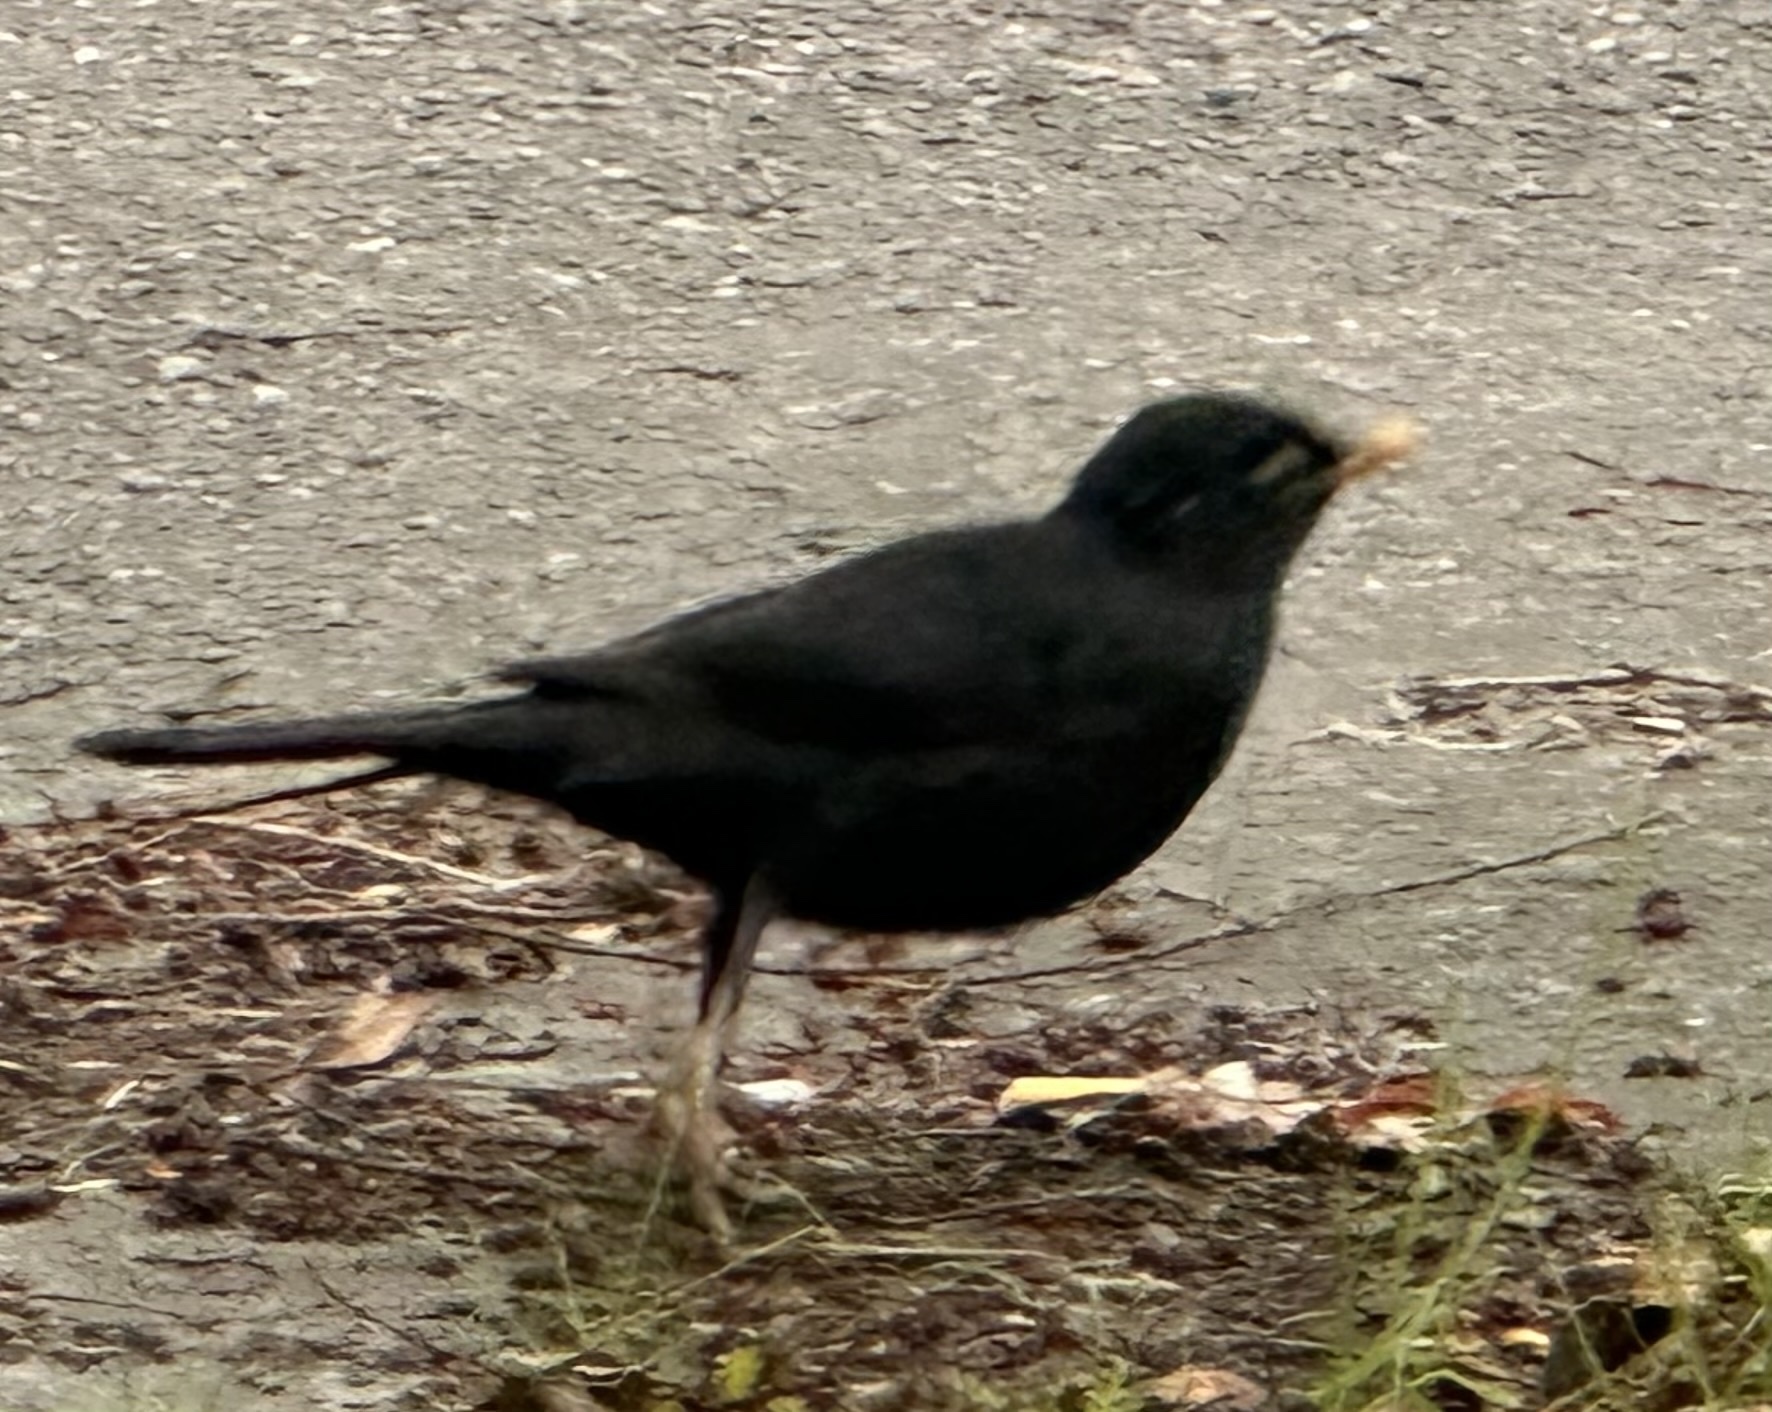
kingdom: Animalia
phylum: Chordata
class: Aves
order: Passeriformes
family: Turdidae
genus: Turdus
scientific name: Turdus merula
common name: Common blackbird
